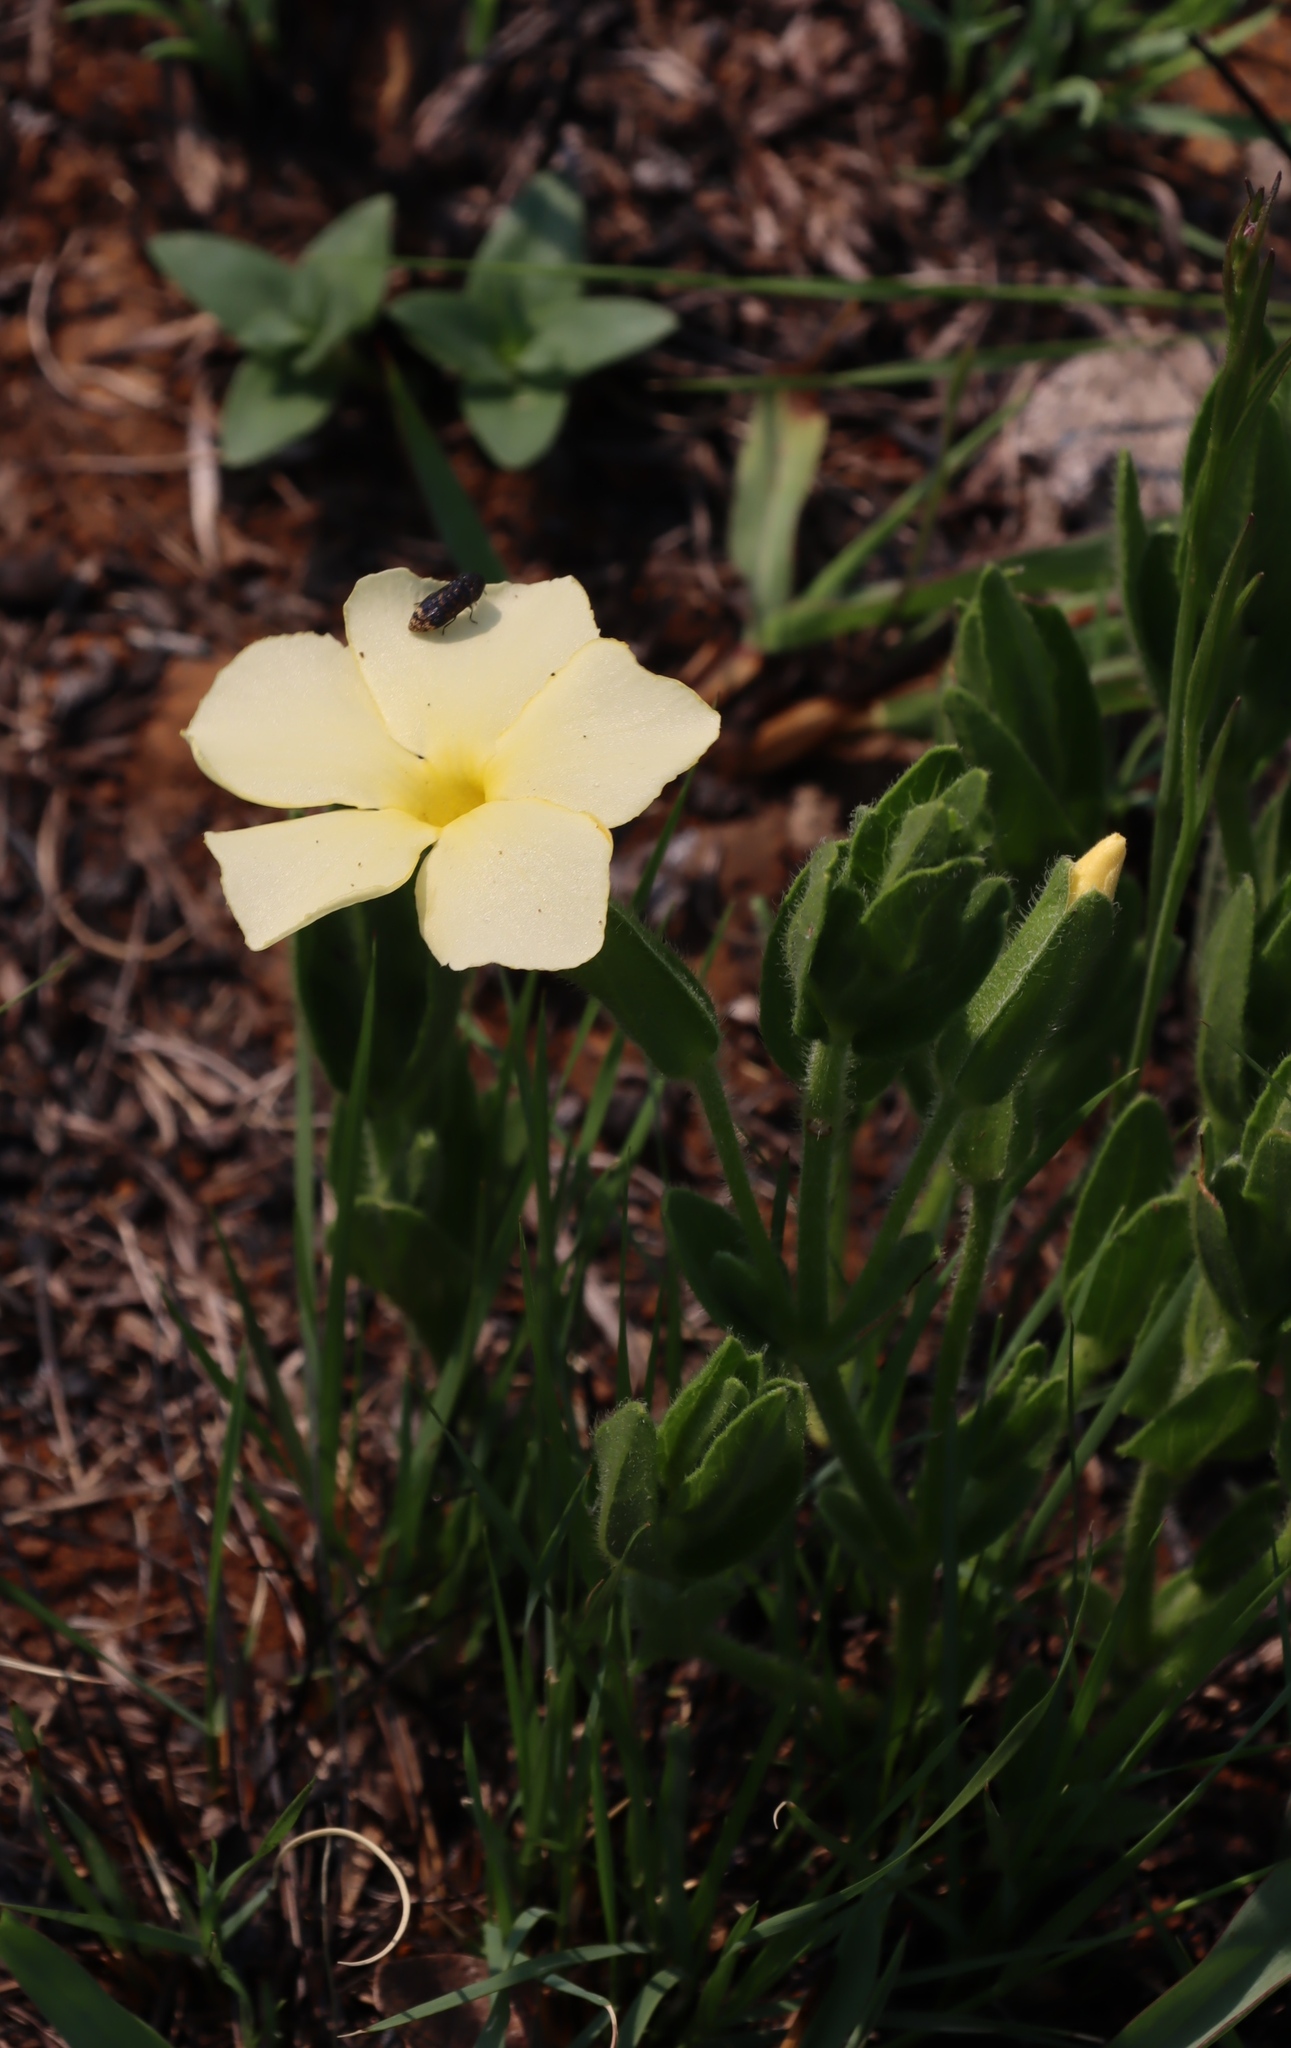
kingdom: Plantae
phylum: Tracheophyta
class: Magnoliopsida
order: Lamiales
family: Acanthaceae
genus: Thunbergia
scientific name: Thunbergia atriplicifolia
